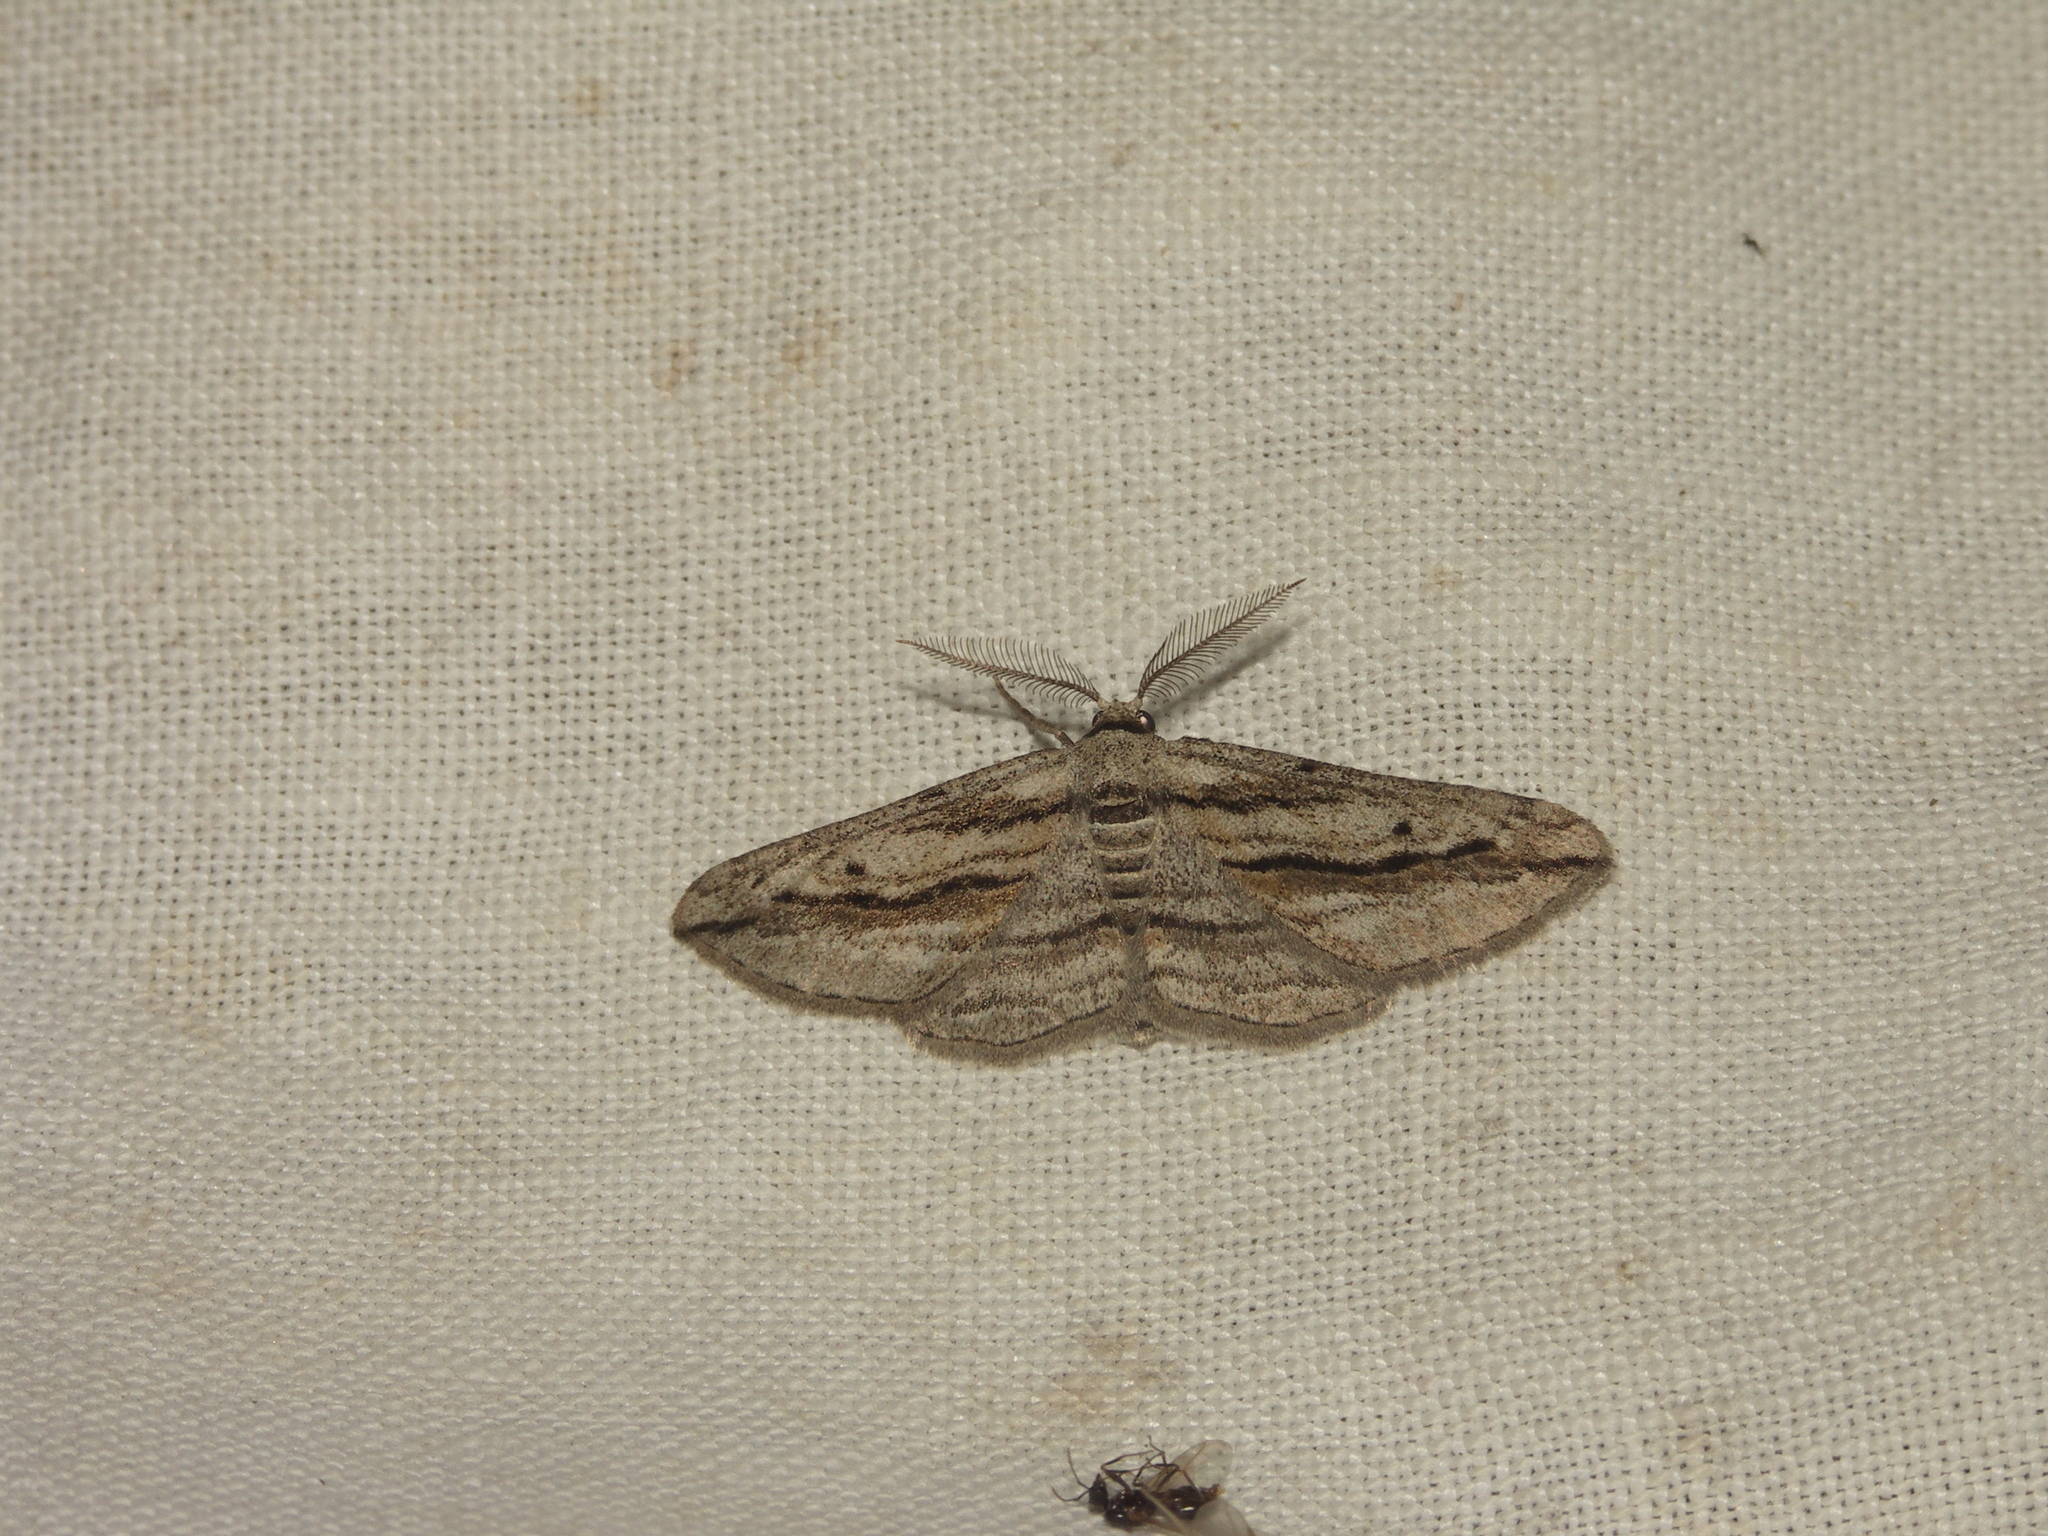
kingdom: Animalia
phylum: Arthropoda
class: Insecta
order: Lepidoptera
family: Geometridae
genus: Ecleora
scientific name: Ecleora solieraria
